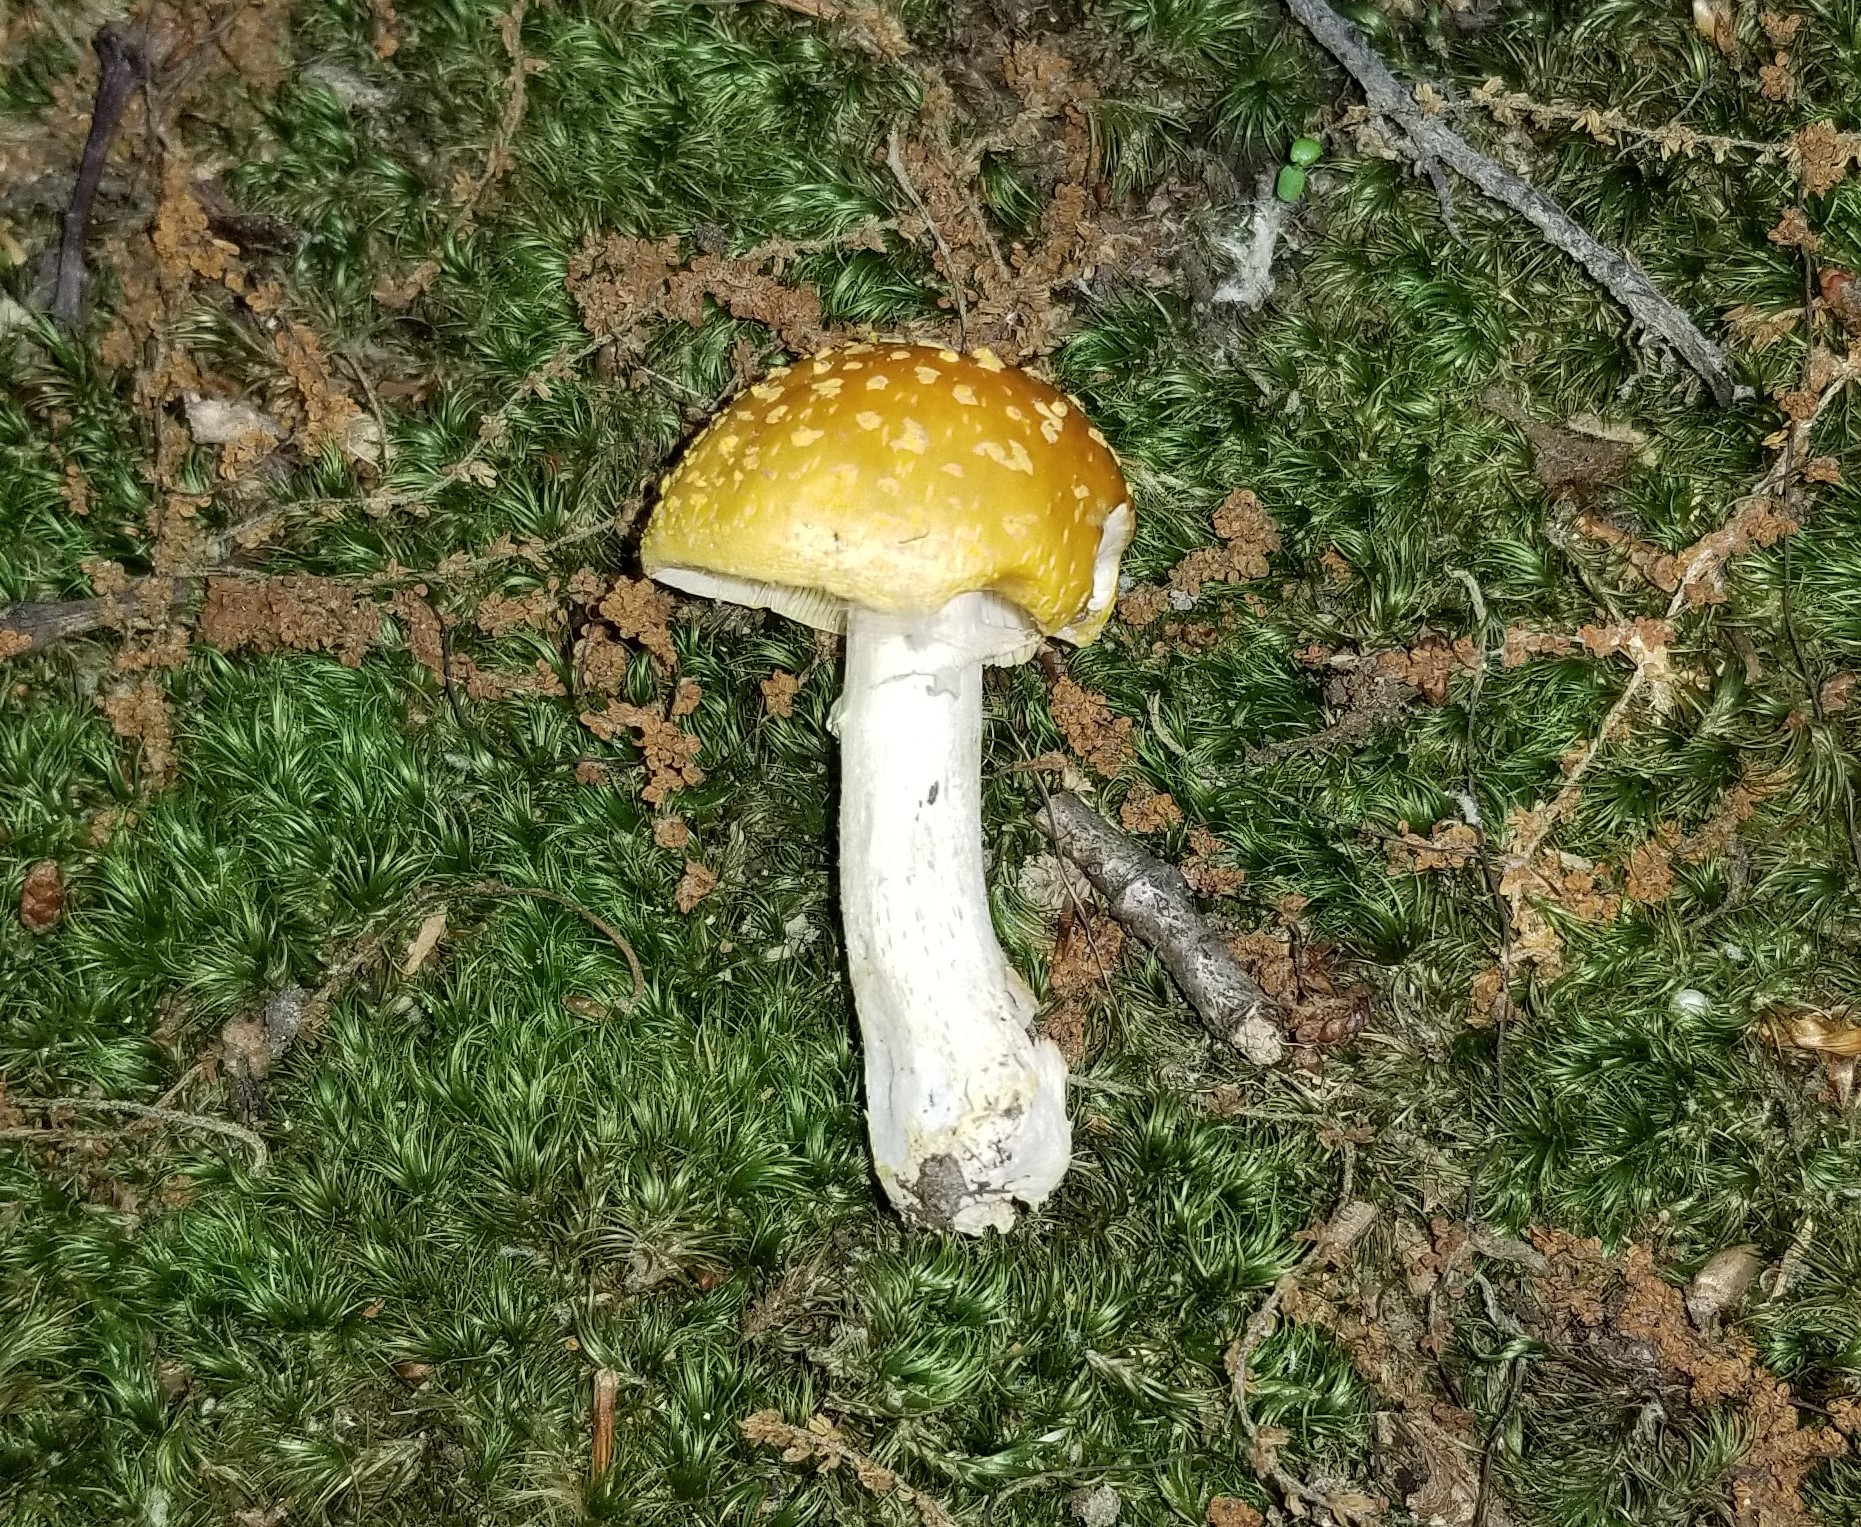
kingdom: Fungi
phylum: Basidiomycota
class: Agaricomycetes
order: Agaricales
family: Amanitaceae
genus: Amanita
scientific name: Amanita flavorubens
